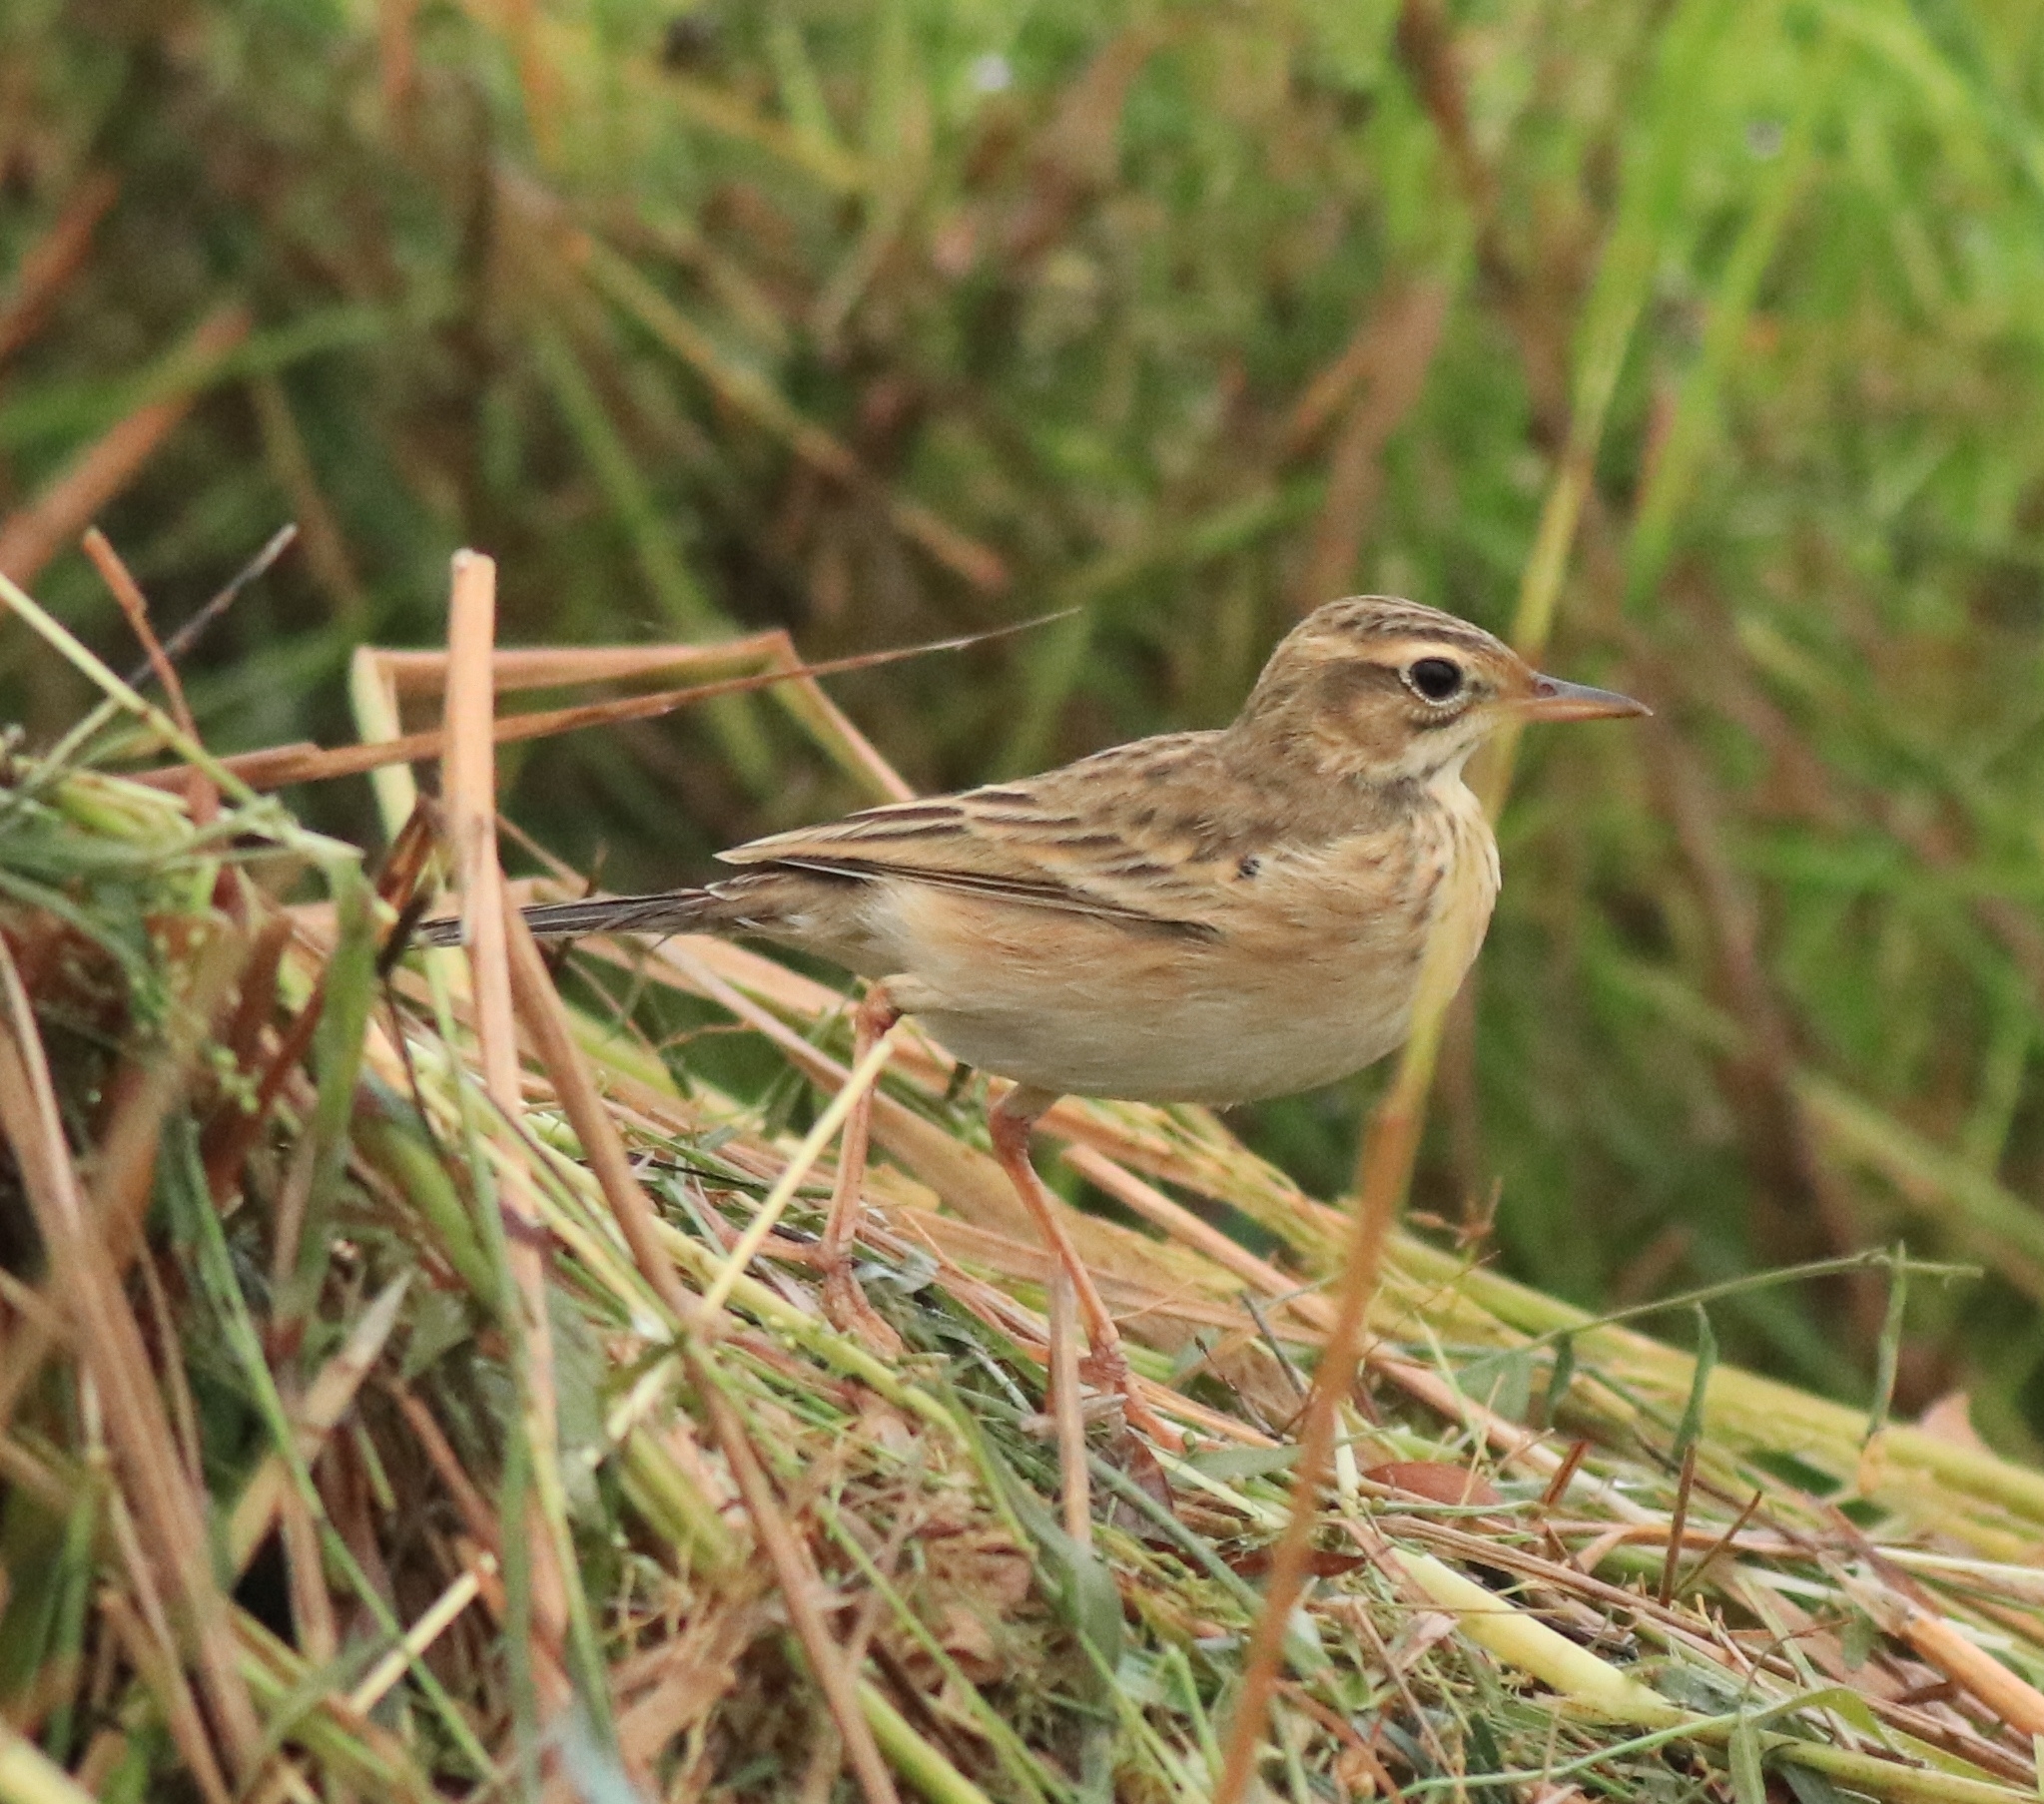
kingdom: Animalia
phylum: Chordata
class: Aves
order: Passeriformes
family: Motacillidae
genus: Anthus
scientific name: Anthus rufulus
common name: Paddyfield pipit
